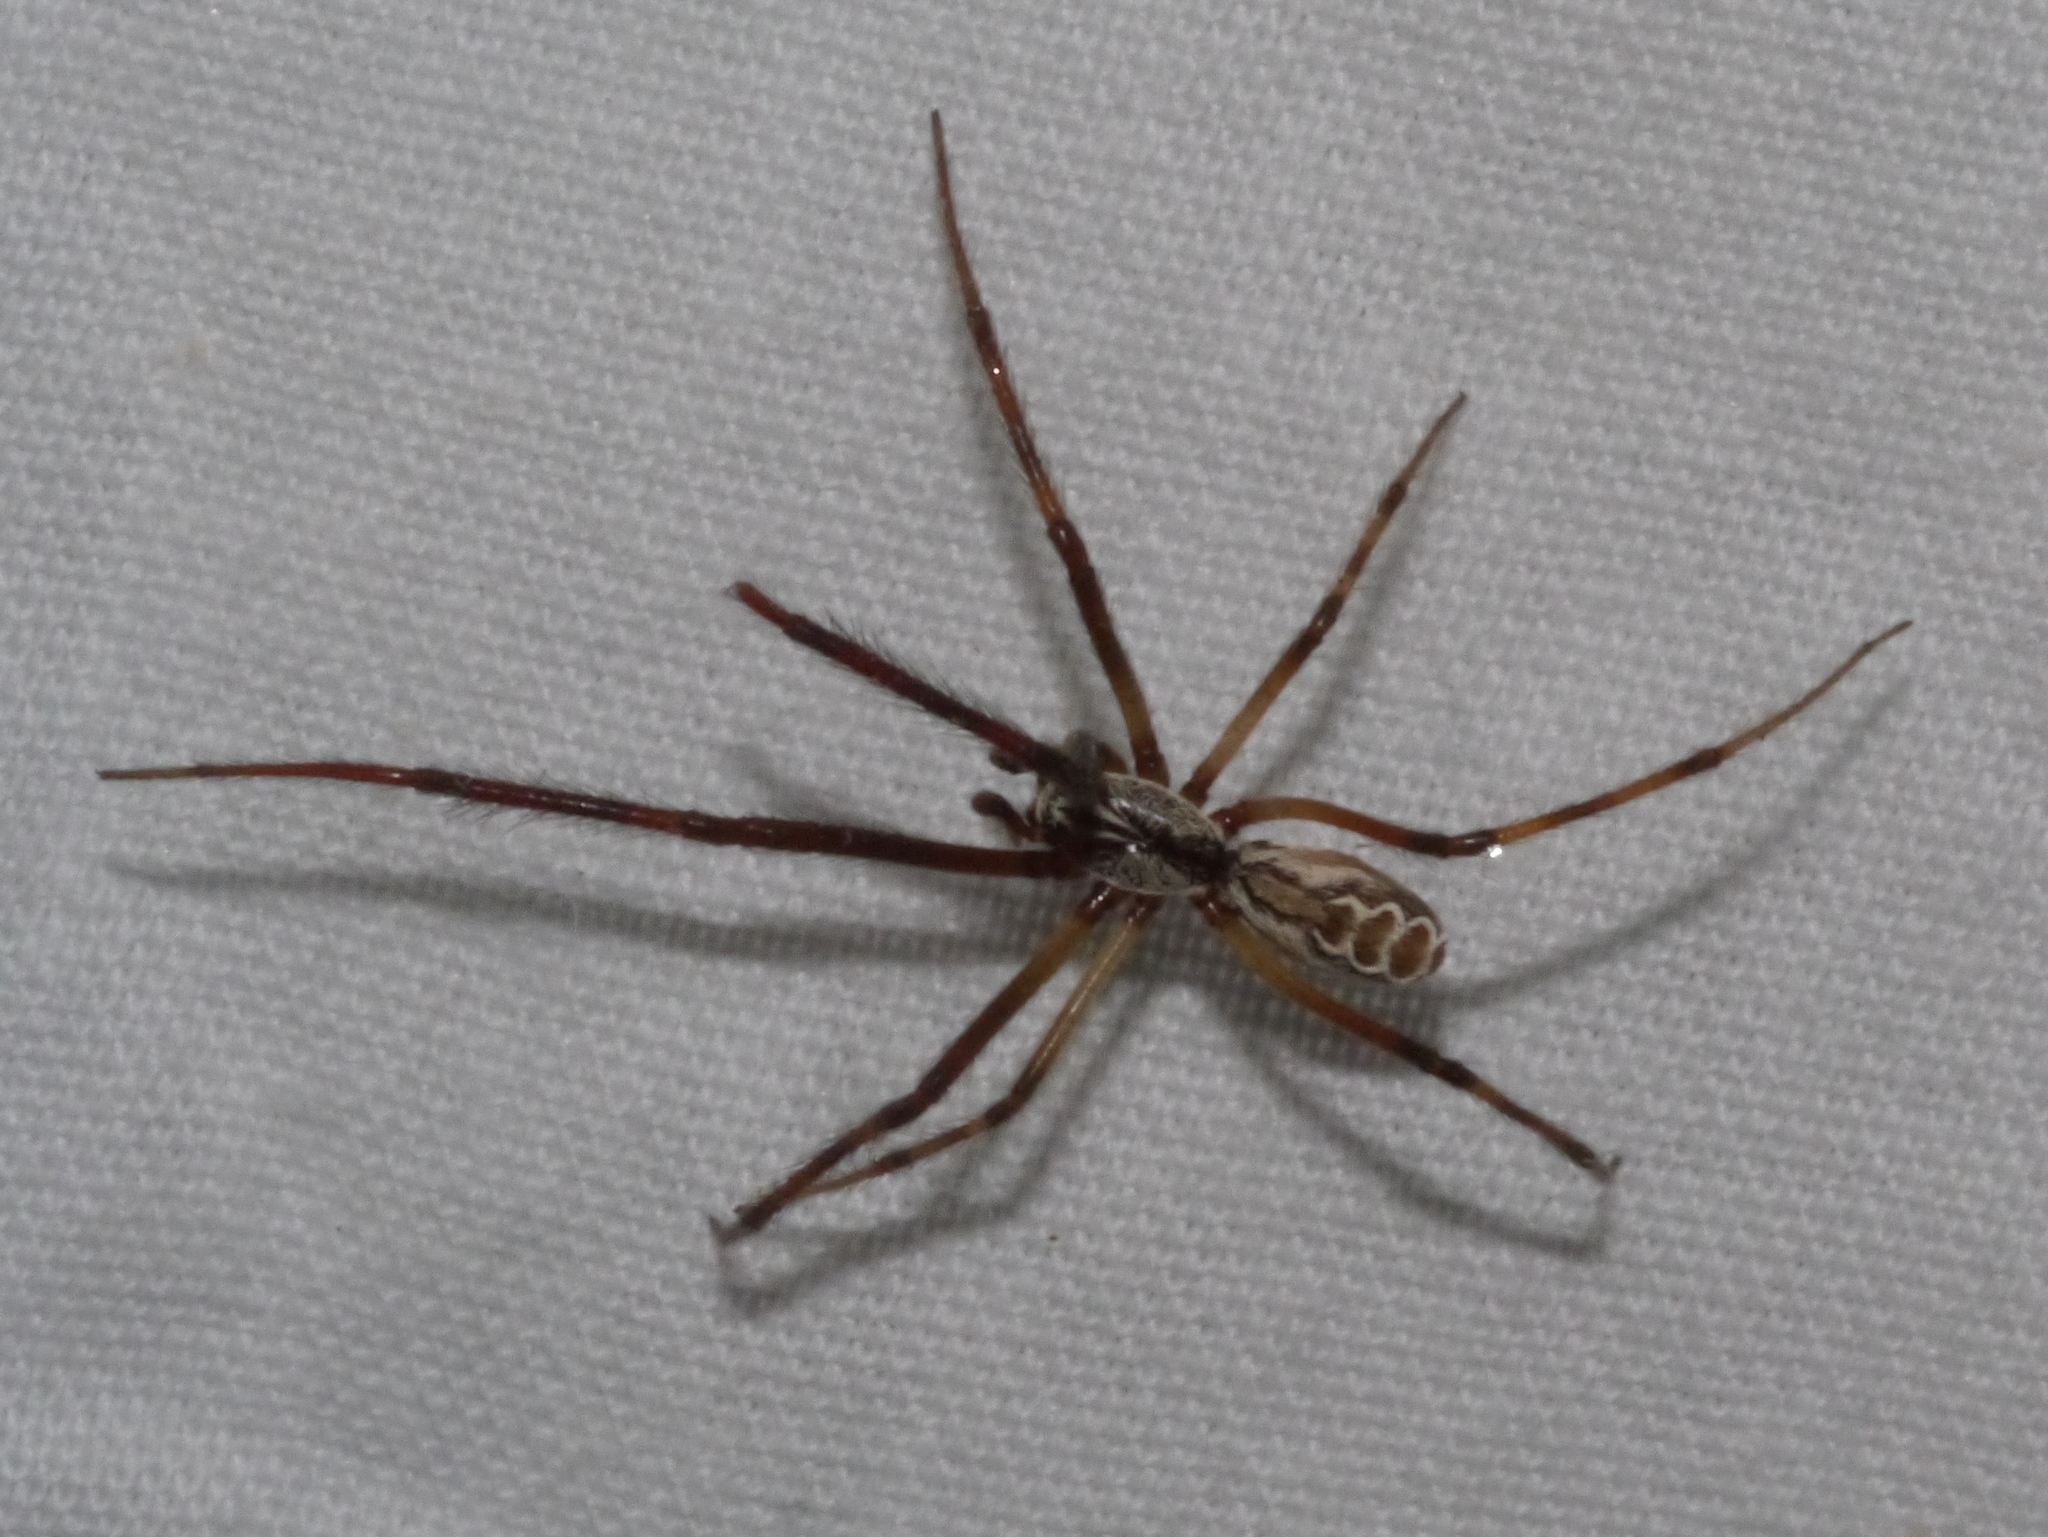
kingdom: Animalia
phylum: Arthropoda
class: Arachnida
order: Araneae
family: Diguetidae
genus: Diguetia
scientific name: Diguetia canities
